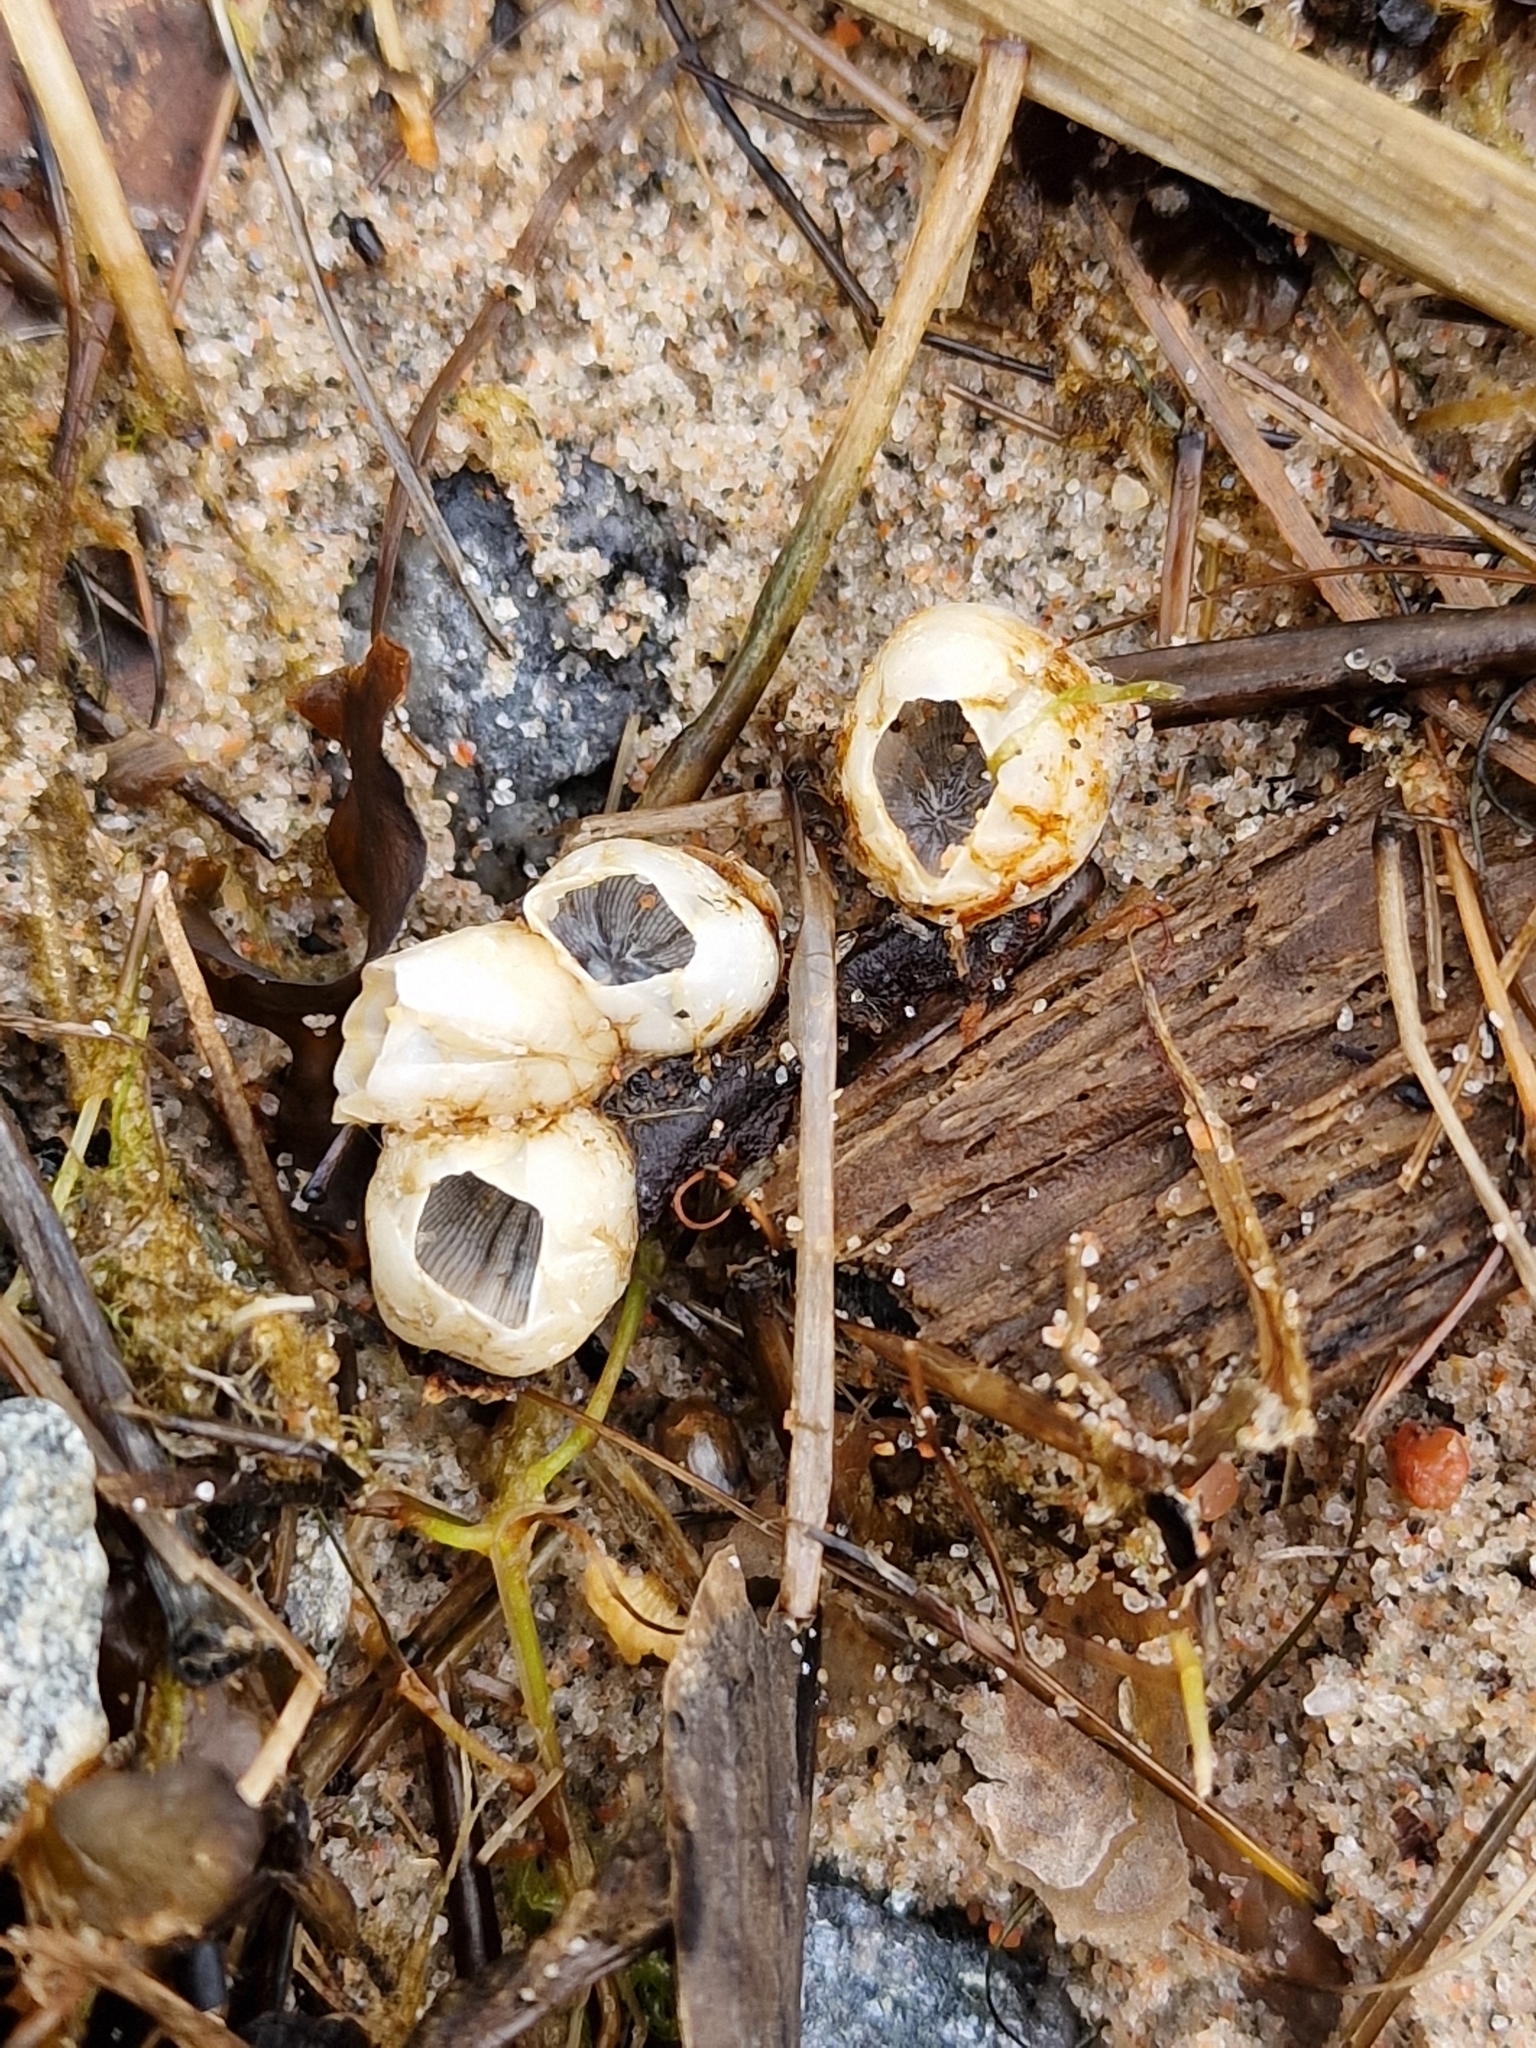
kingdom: Animalia
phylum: Arthropoda
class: Maxillopoda
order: Sessilia
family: Balanidae
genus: Amphibalanus
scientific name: Amphibalanus improvisus
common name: Bay barnacle
